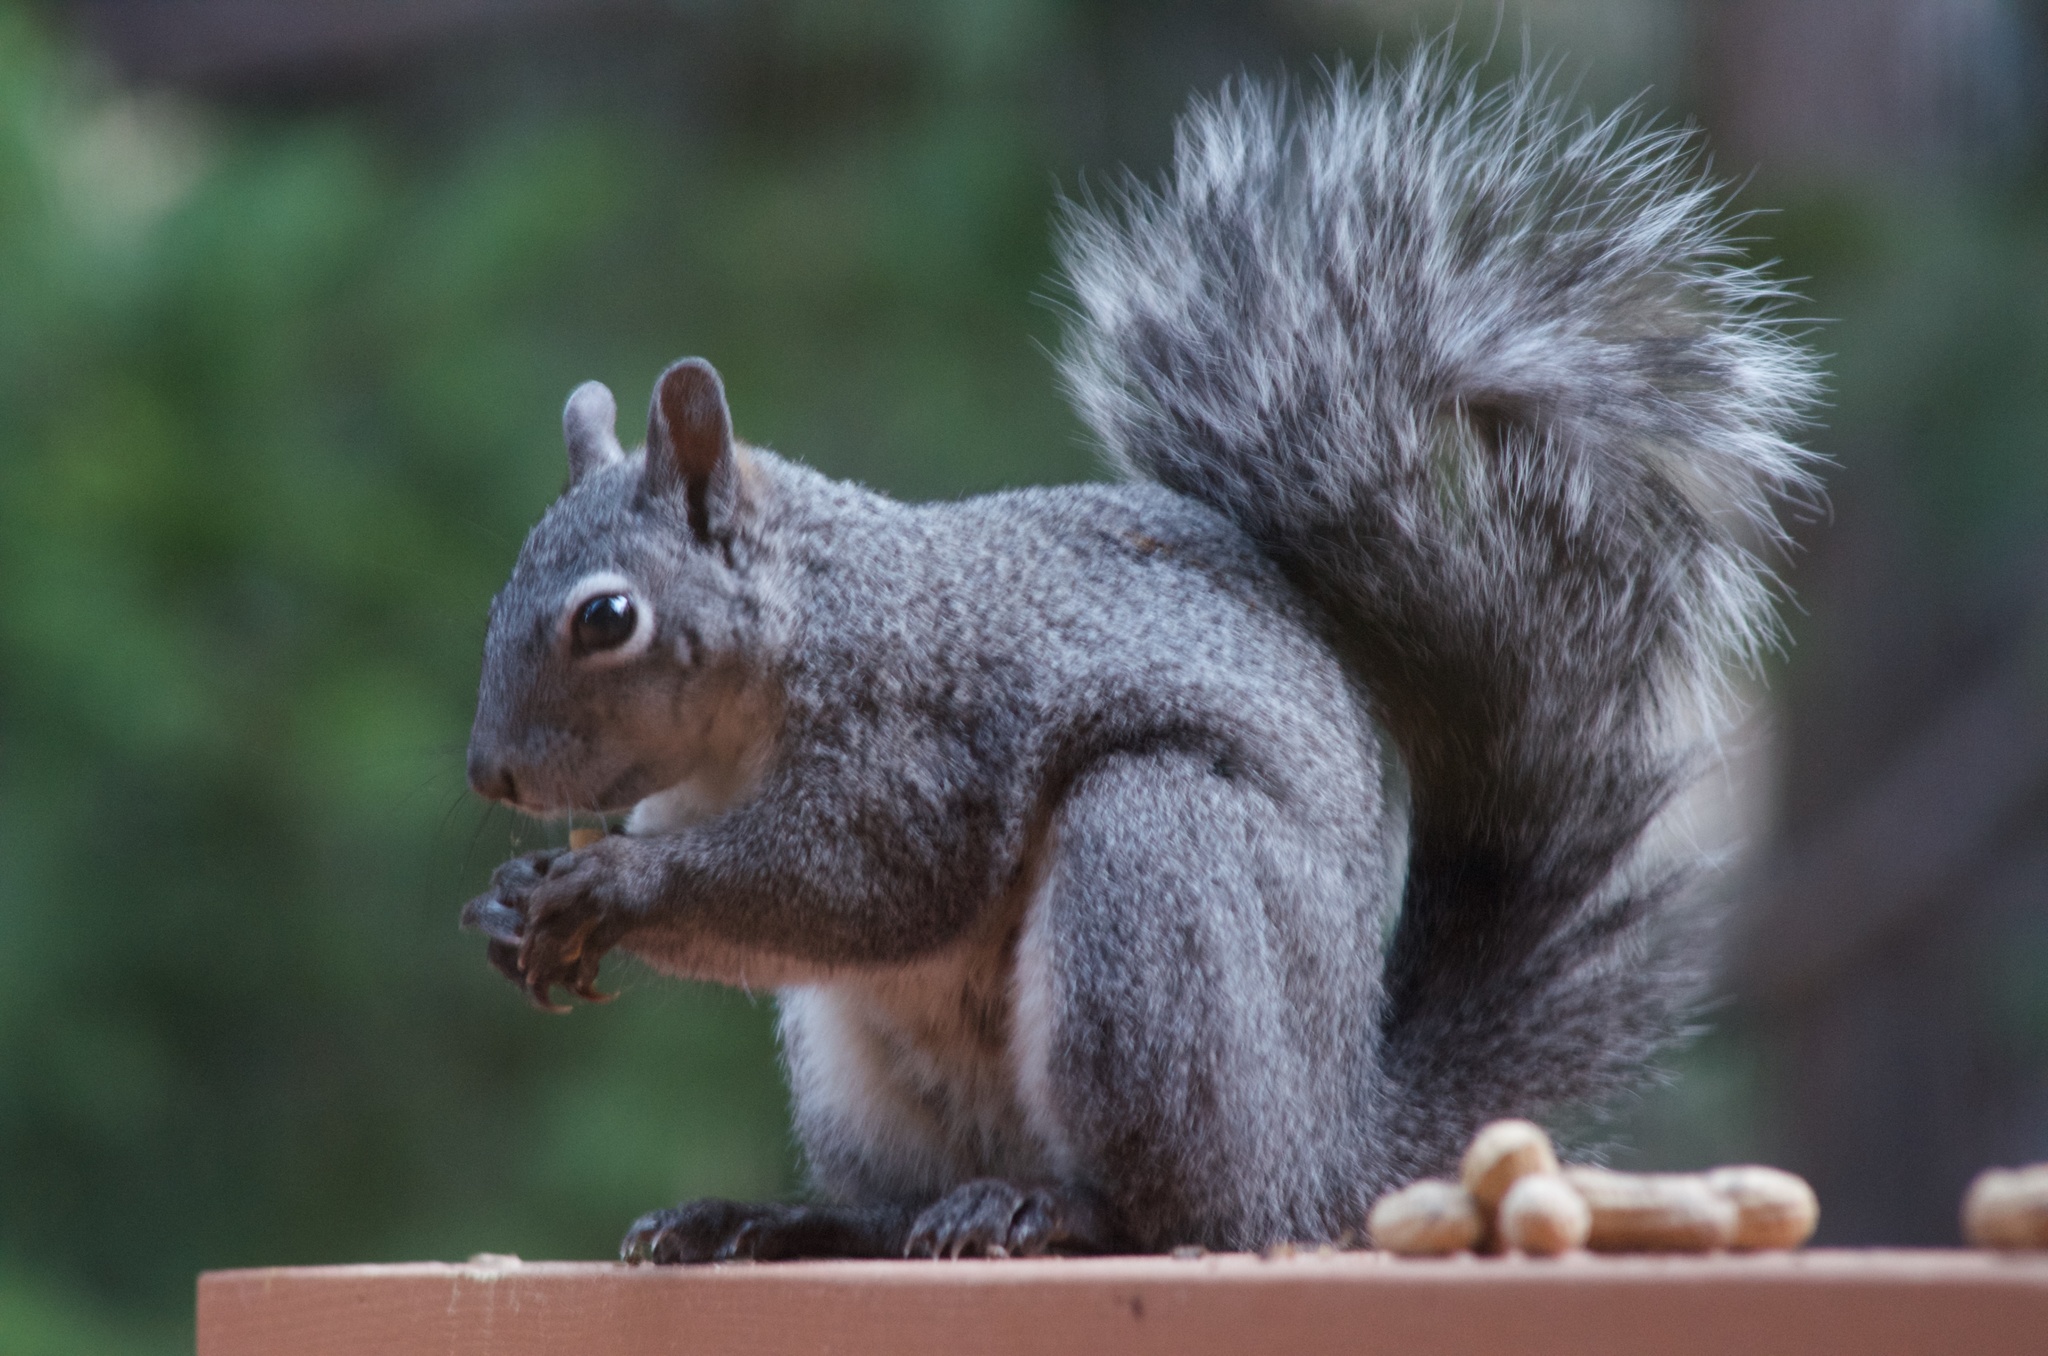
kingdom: Animalia
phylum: Chordata
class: Mammalia
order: Rodentia
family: Sciuridae
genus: Sciurus
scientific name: Sciurus griseus
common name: Western gray squirrel
